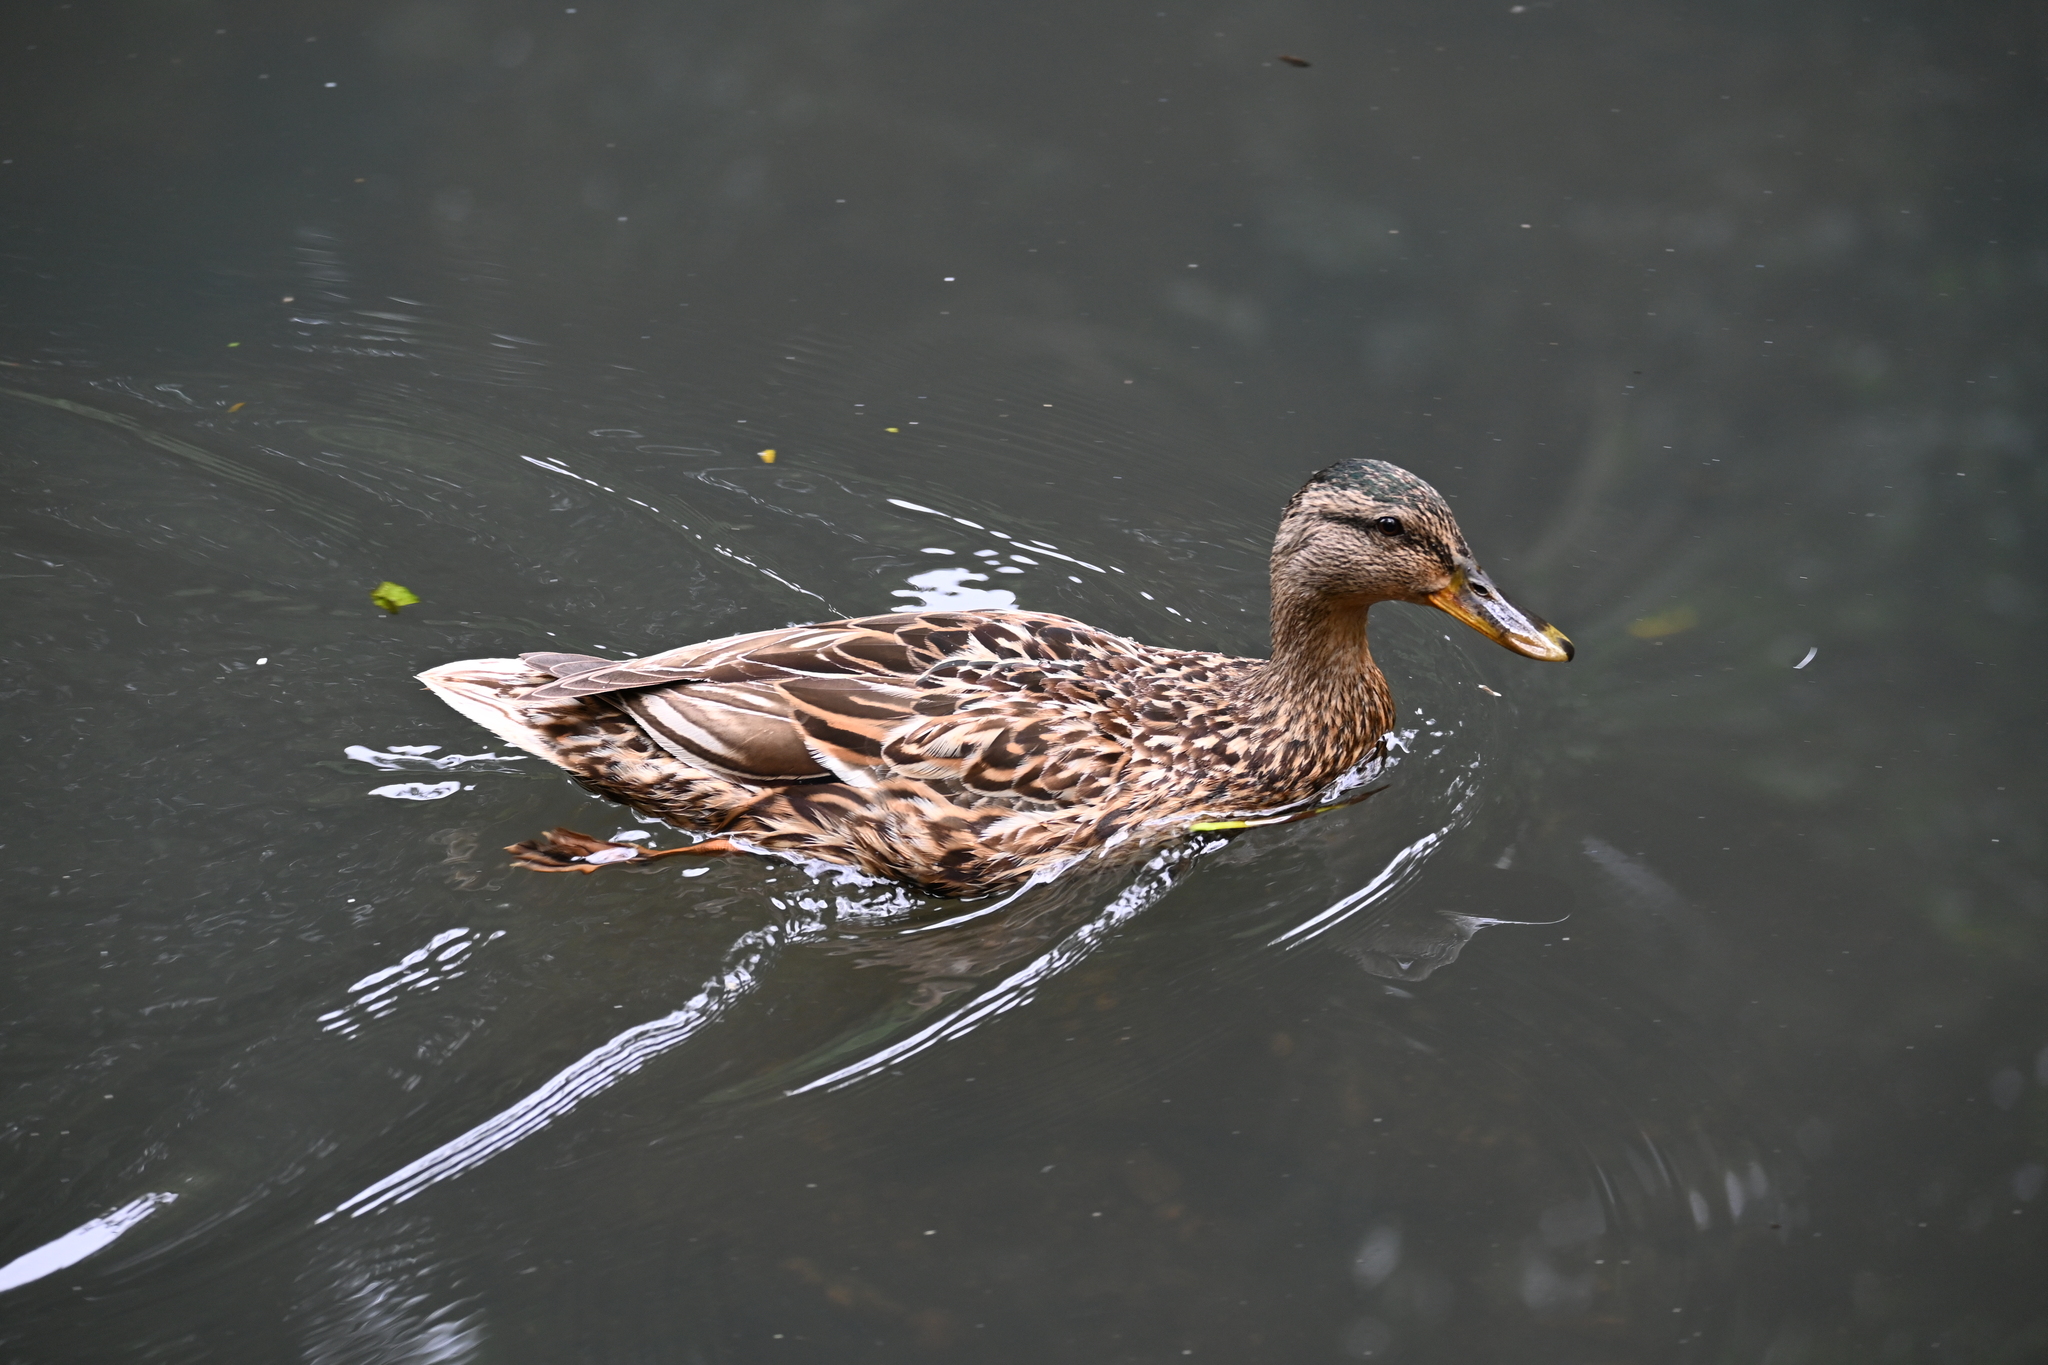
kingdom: Animalia
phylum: Chordata
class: Aves
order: Anseriformes
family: Anatidae
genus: Anas
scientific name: Anas platyrhynchos
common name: Mallard
